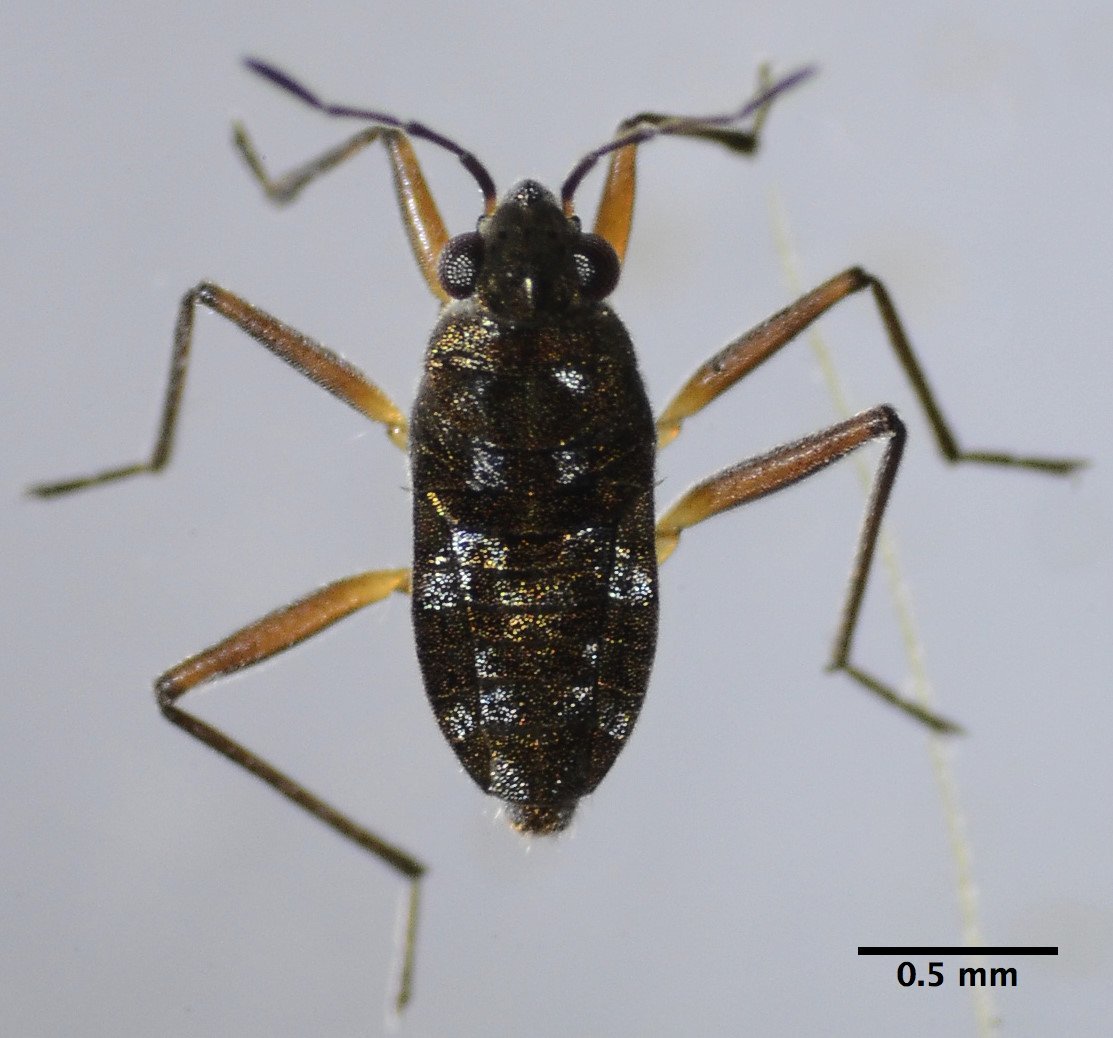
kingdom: Animalia
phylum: Arthropoda
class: Insecta
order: Hemiptera
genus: Kirkaldya
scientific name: Kirkaldya
